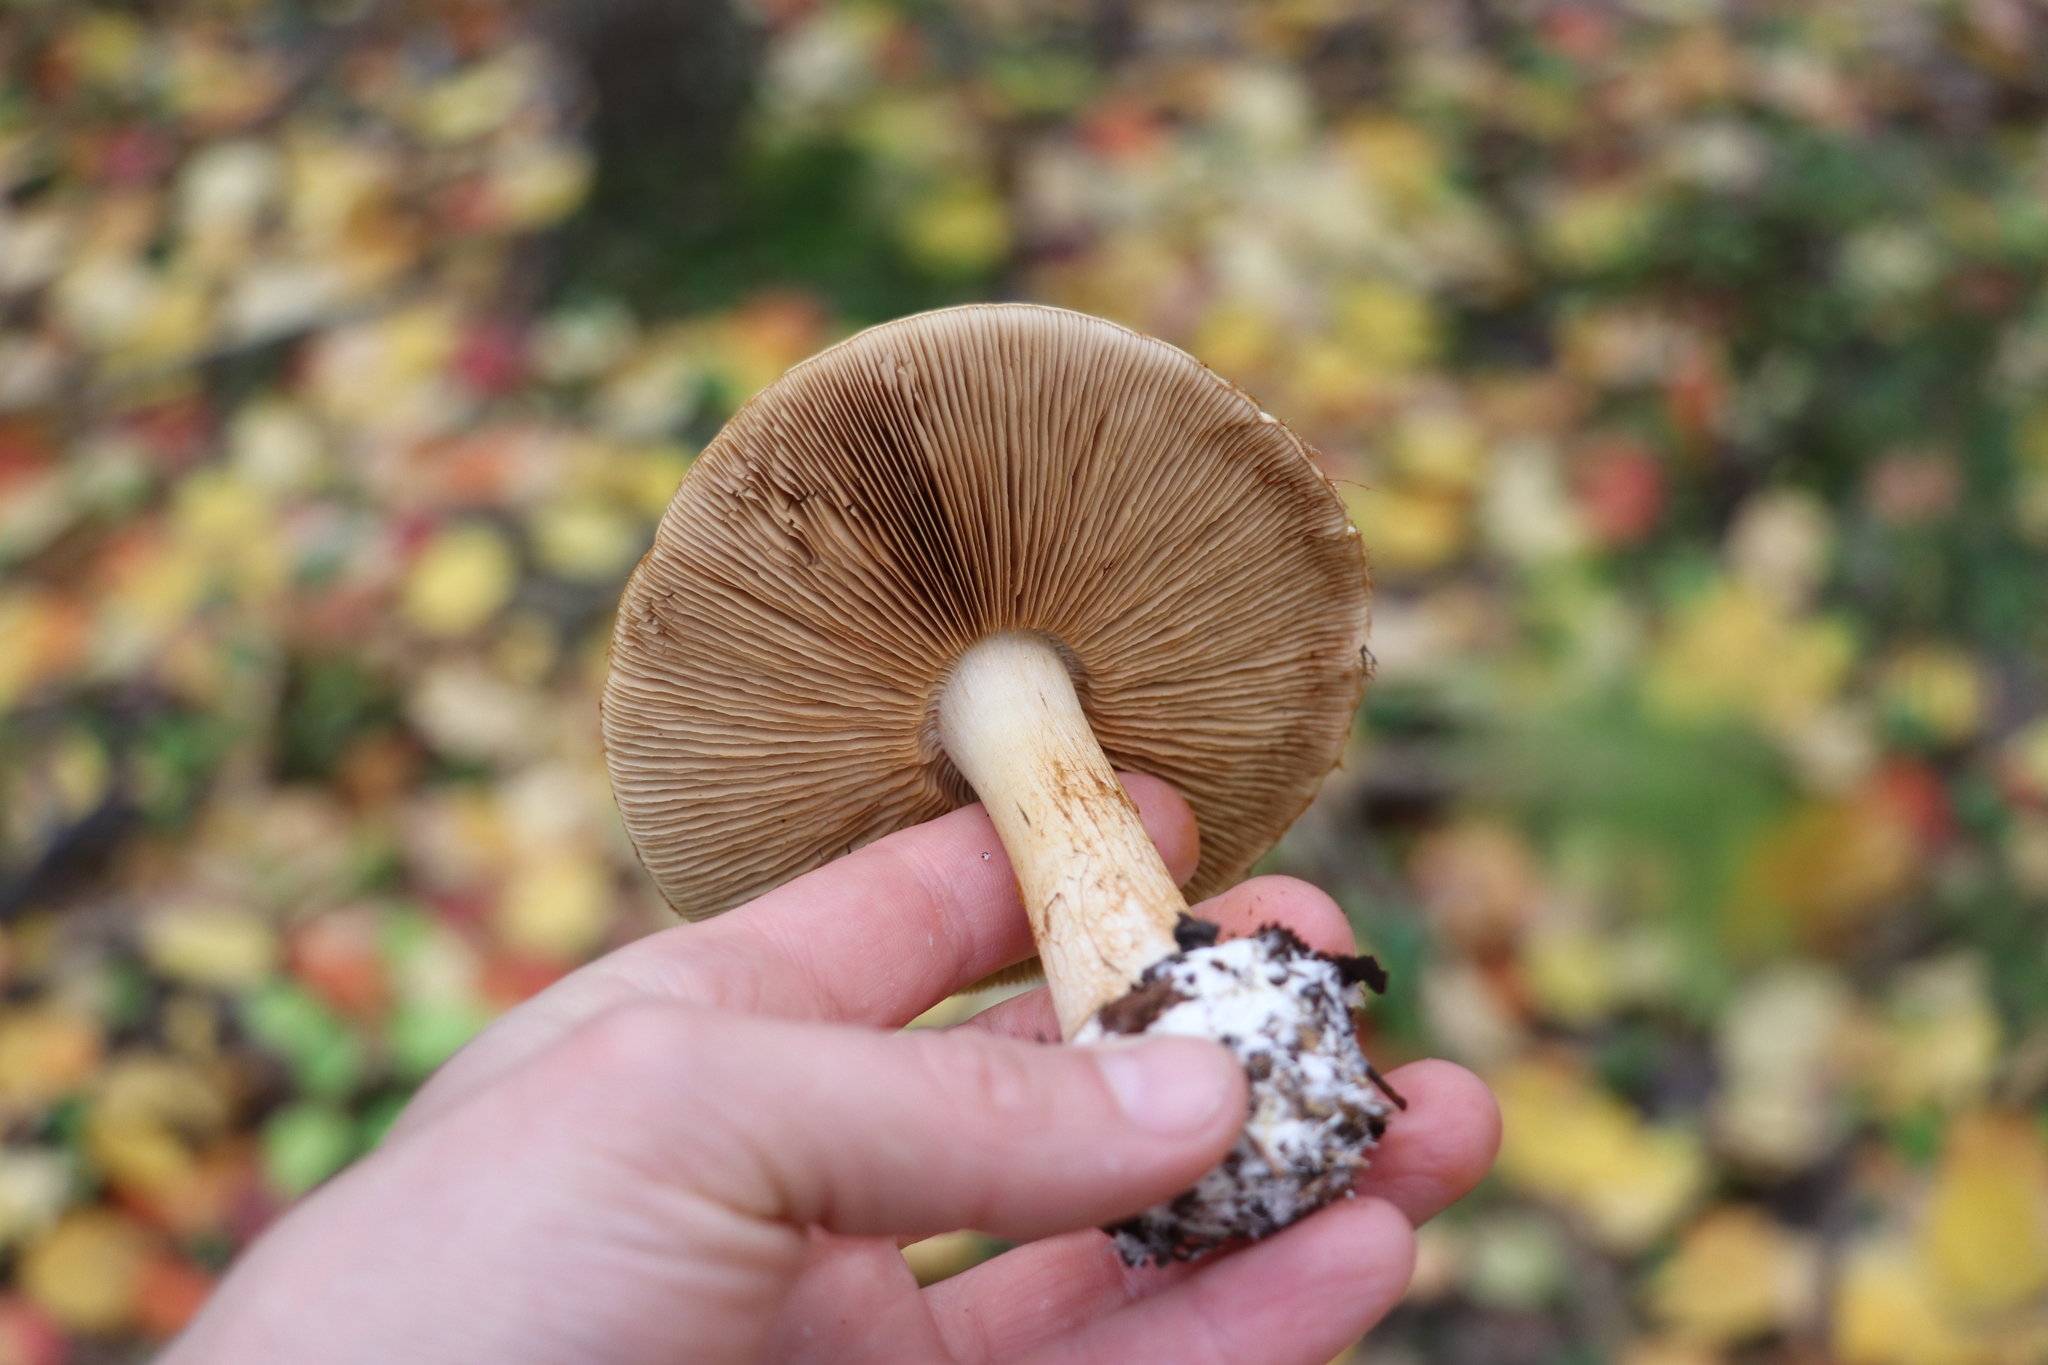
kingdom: Fungi
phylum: Basidiomycota
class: Agaricomycetes
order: Agaricales
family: Cortinariaceae
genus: Thaxterogaster
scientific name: Thaxterogaster talus
